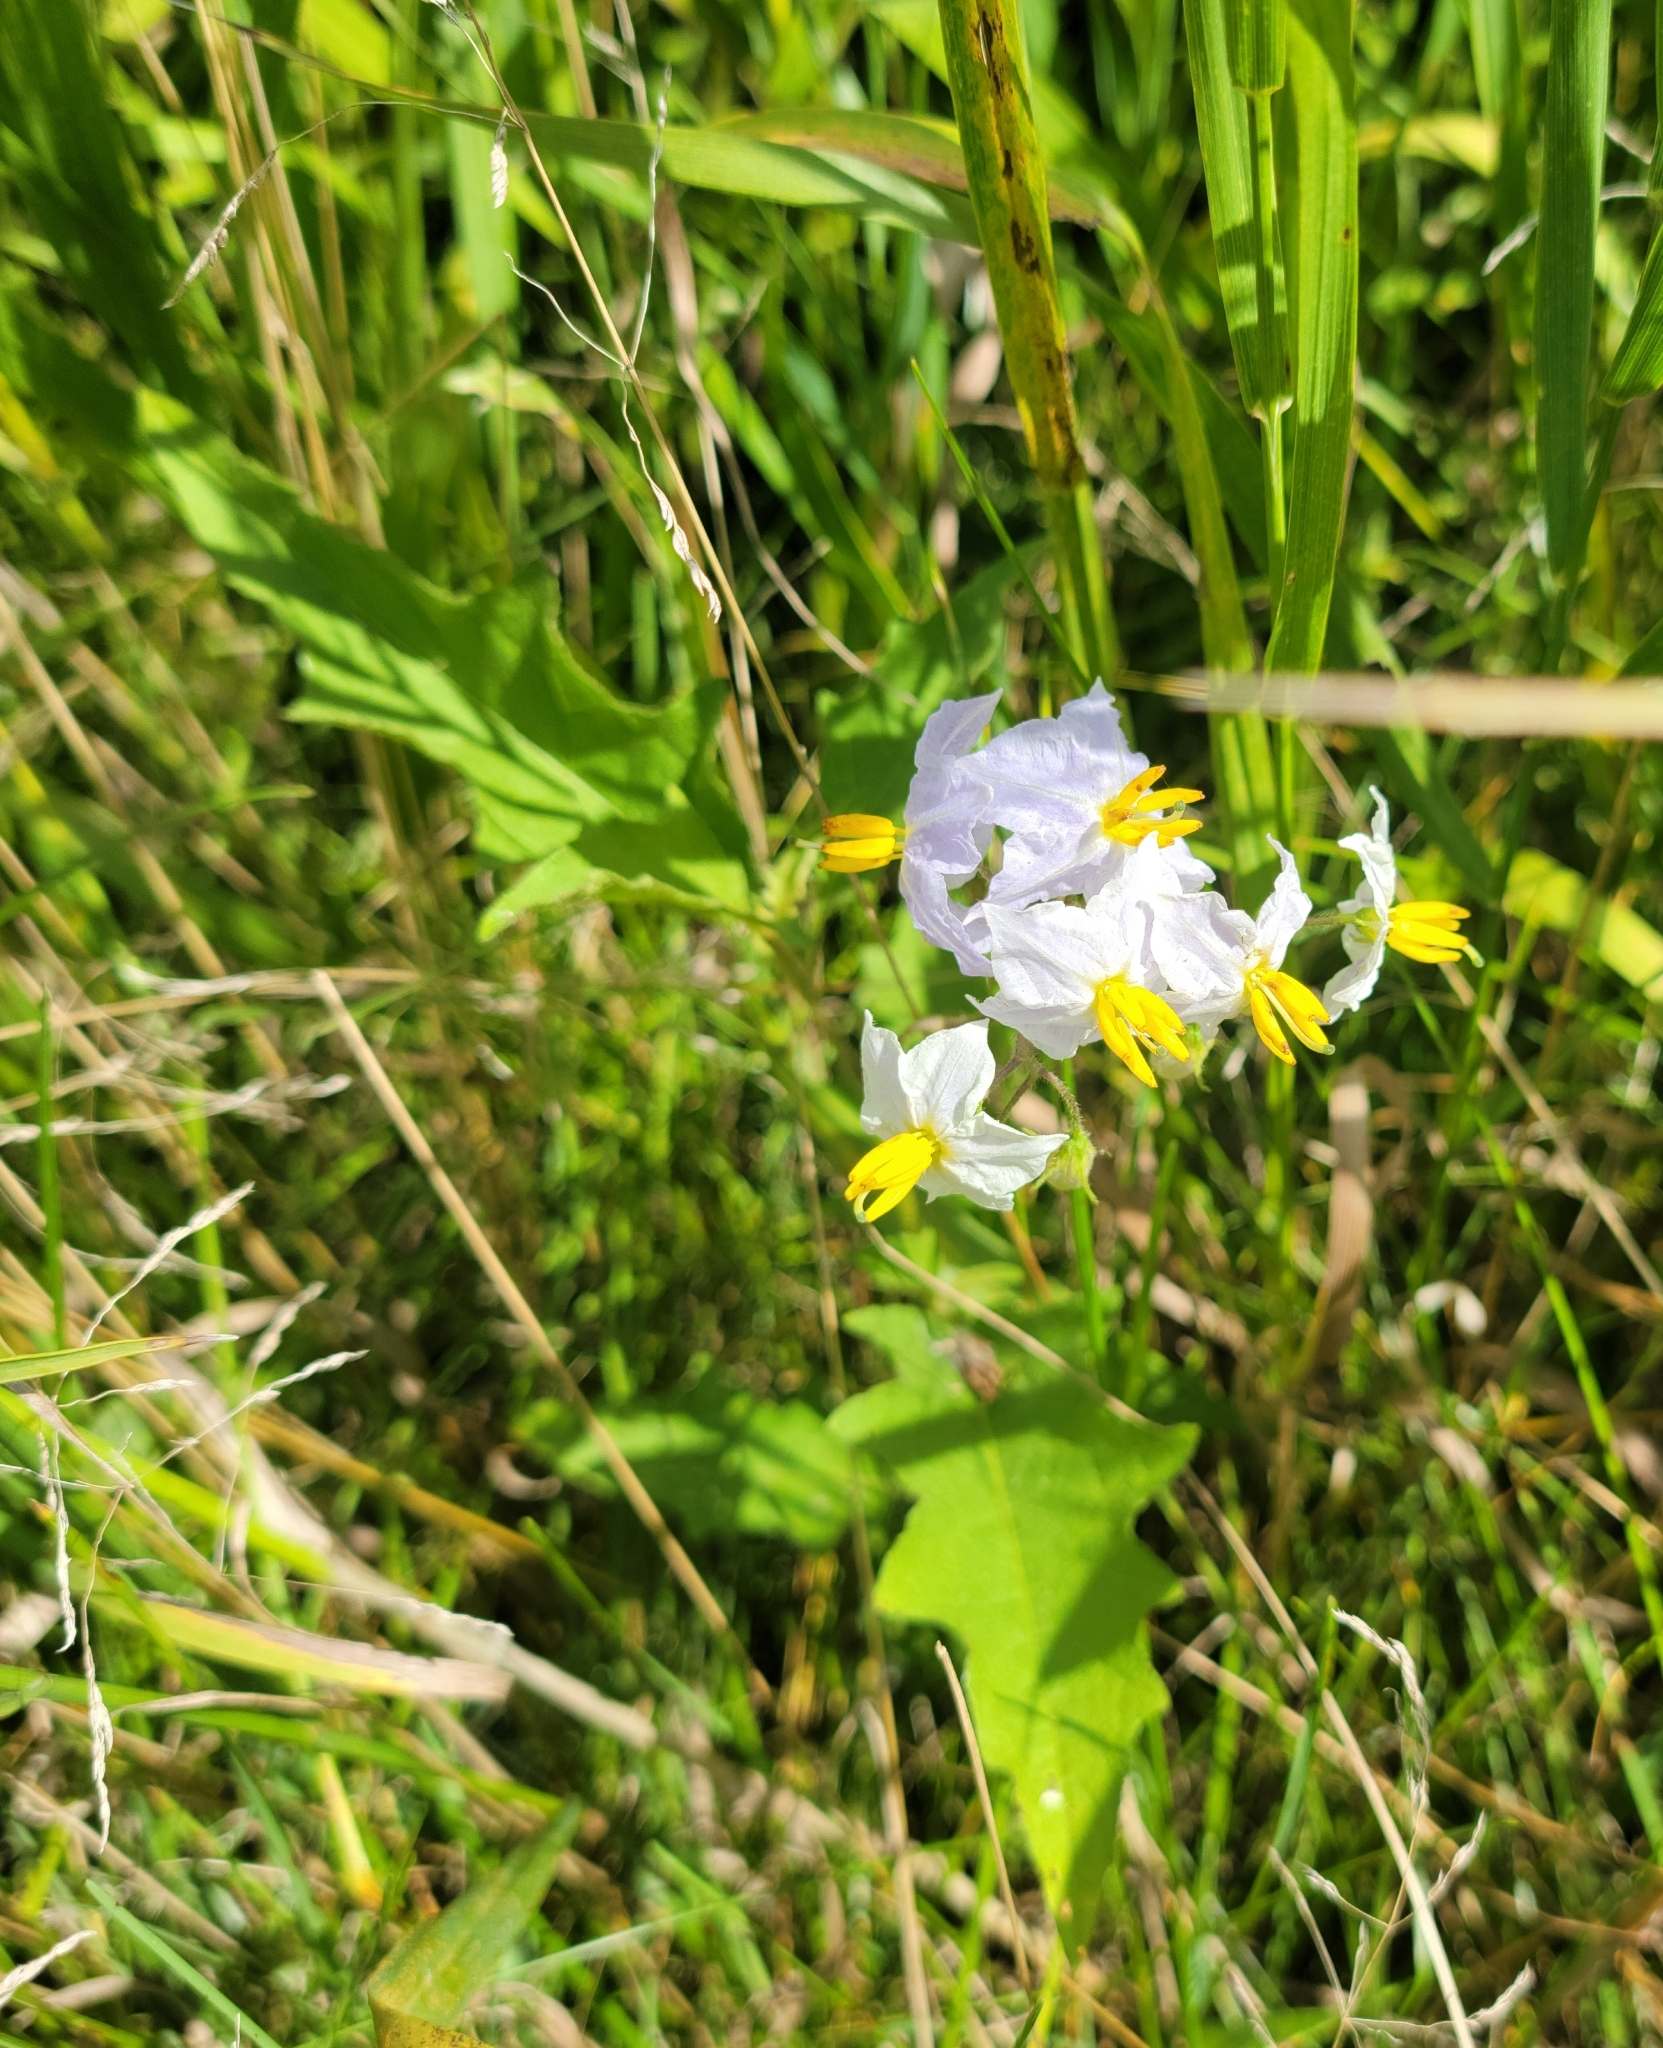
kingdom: Plantae
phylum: Tracheophyta
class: Magnoliopsida
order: Solanales
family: Solanaceae
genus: Solanum
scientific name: Solanum carolinense
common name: Horse-nettle
